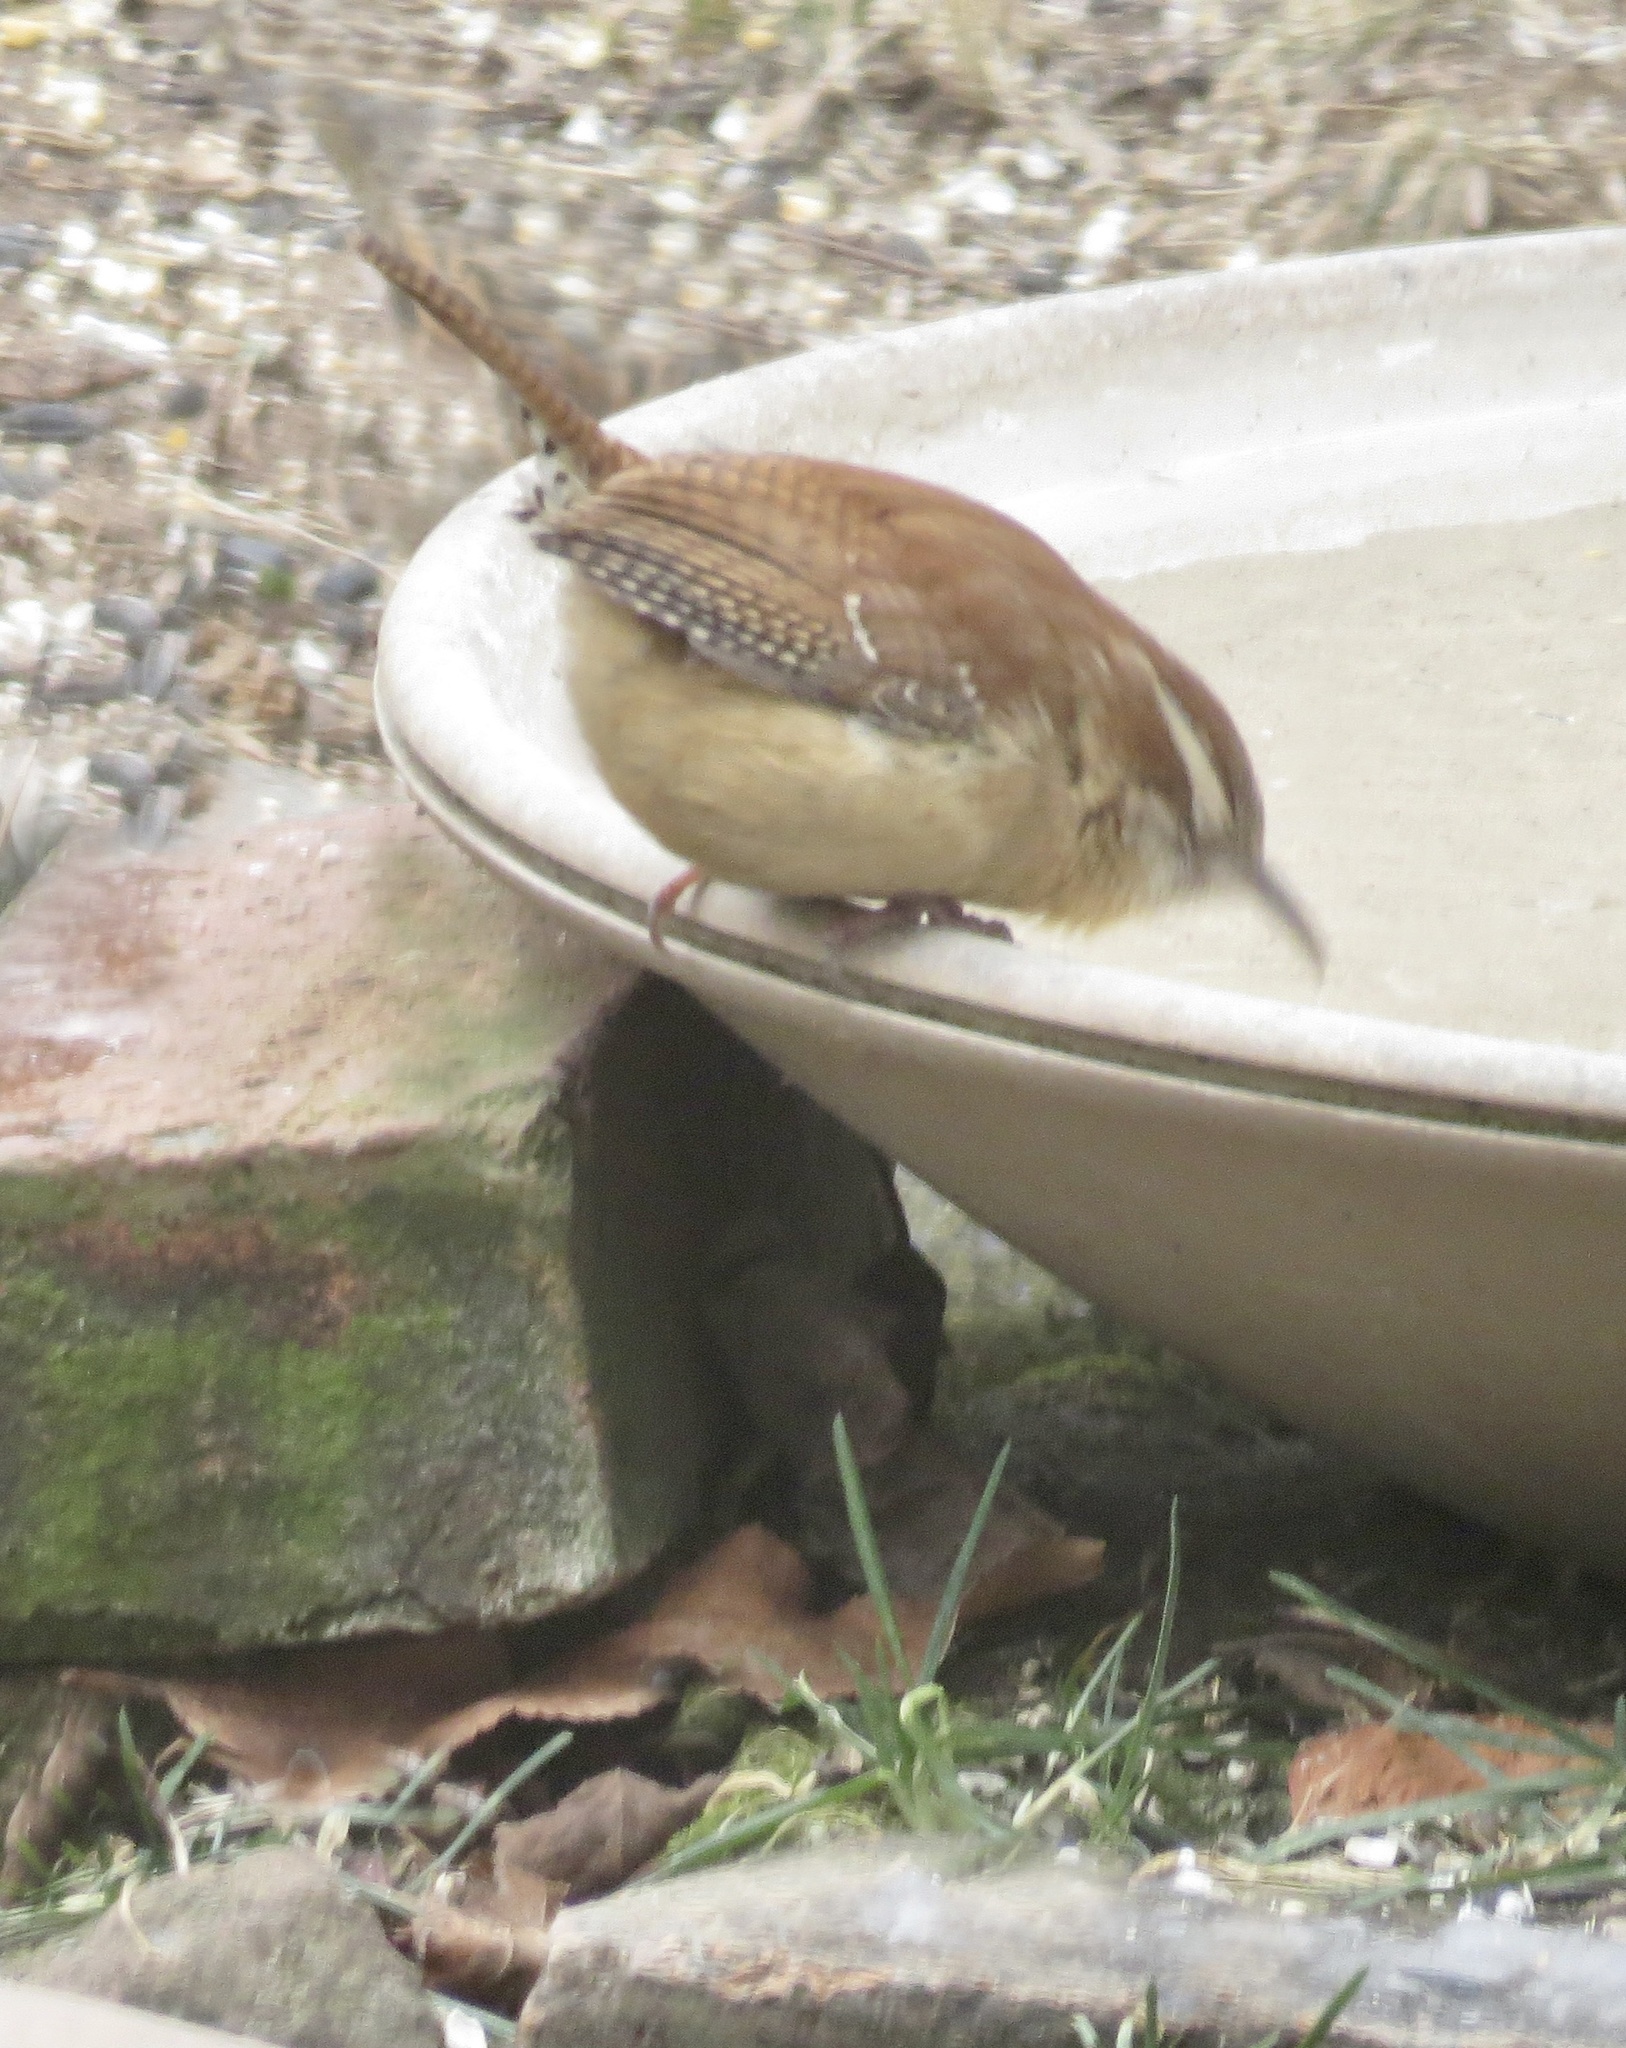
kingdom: Animalia
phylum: Chordata
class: Aves
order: Passeriformes
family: Troglodytidae
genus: Thryothorus
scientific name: Thryothorus ludovicianus
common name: Carolina wren
